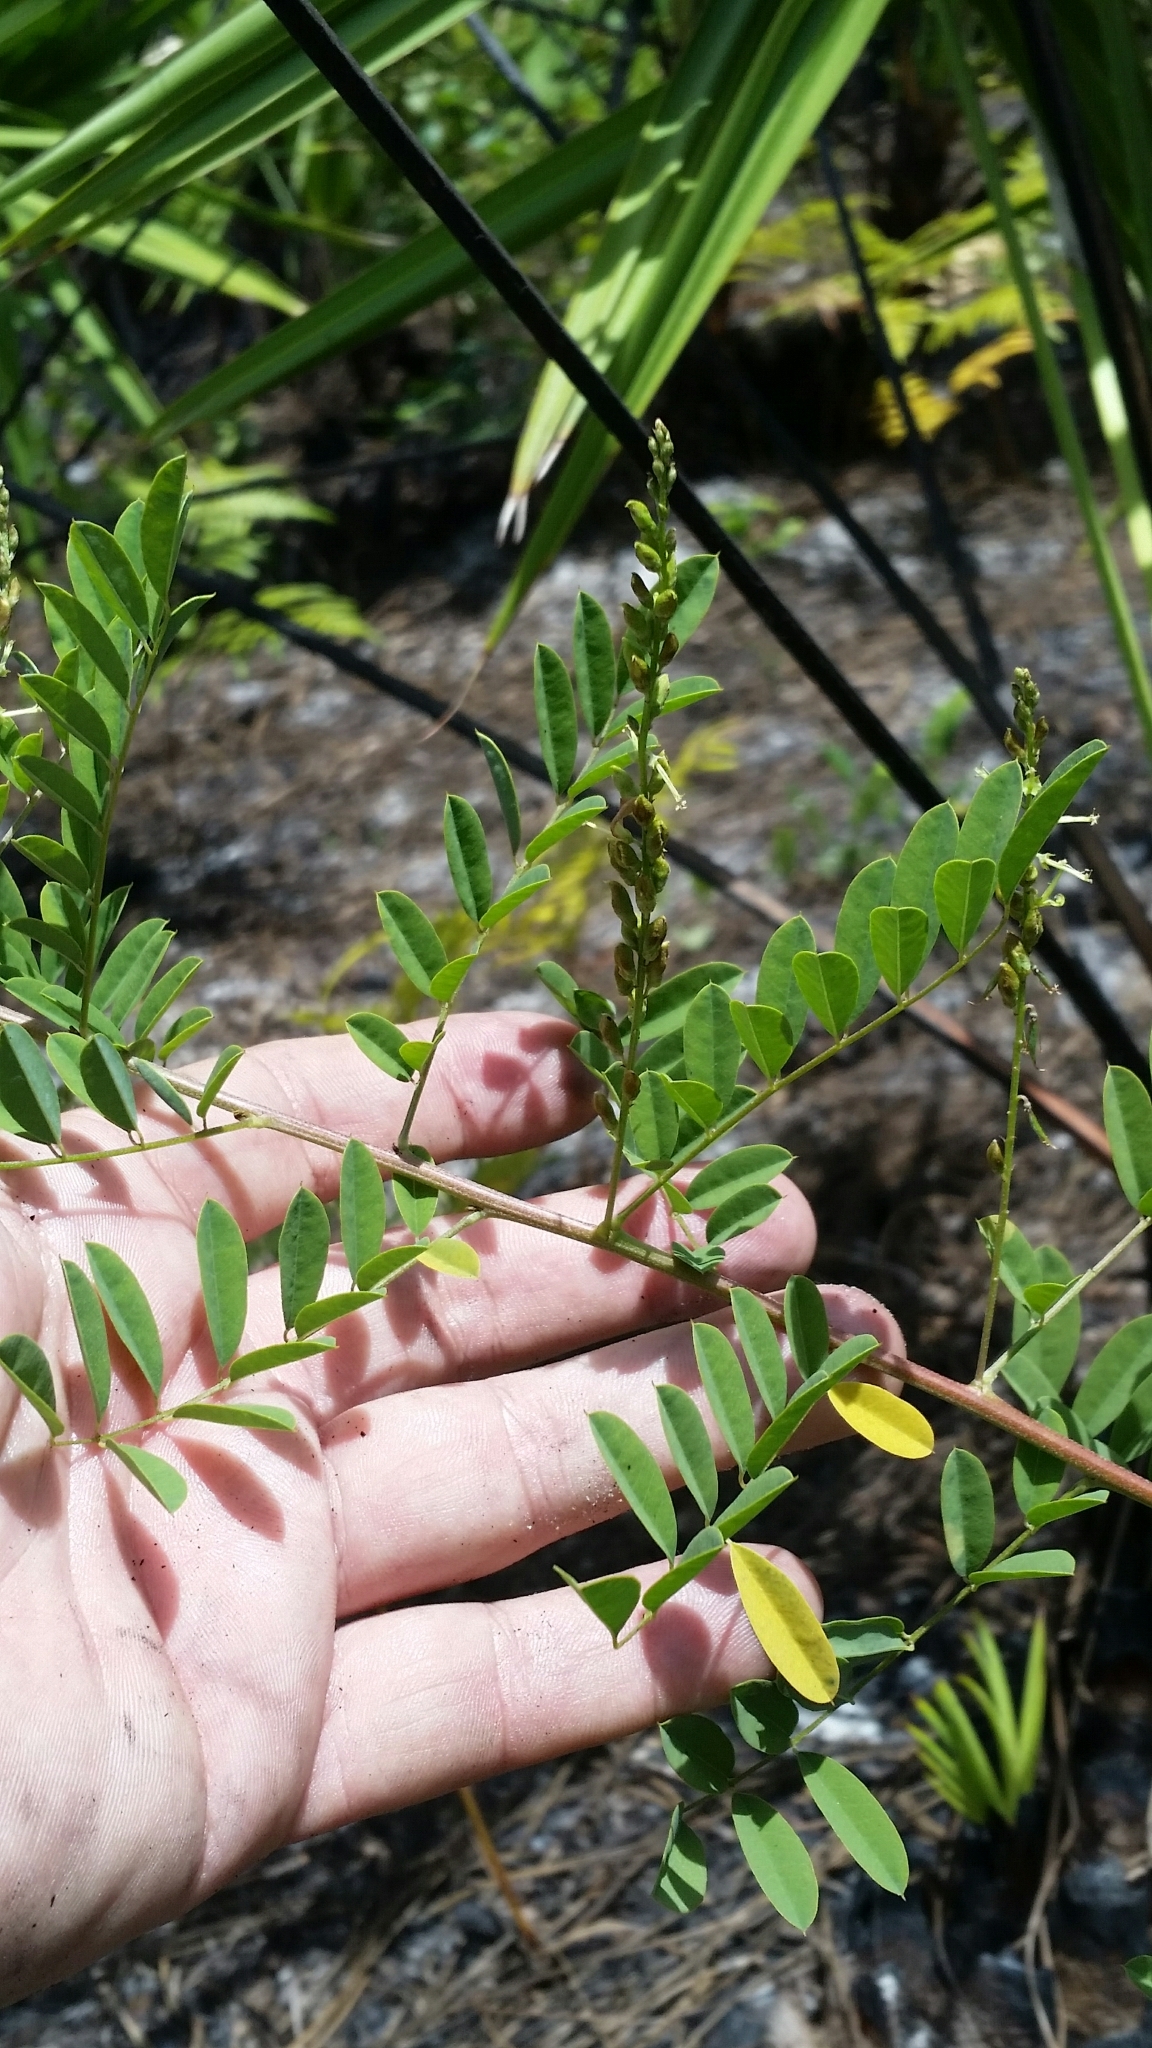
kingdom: Plantae
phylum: Tracheophyta
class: Magnoliopsida
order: Fabales
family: Fabaceae
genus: Indigofera
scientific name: Indigofera caroliniana
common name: Wild indigo
